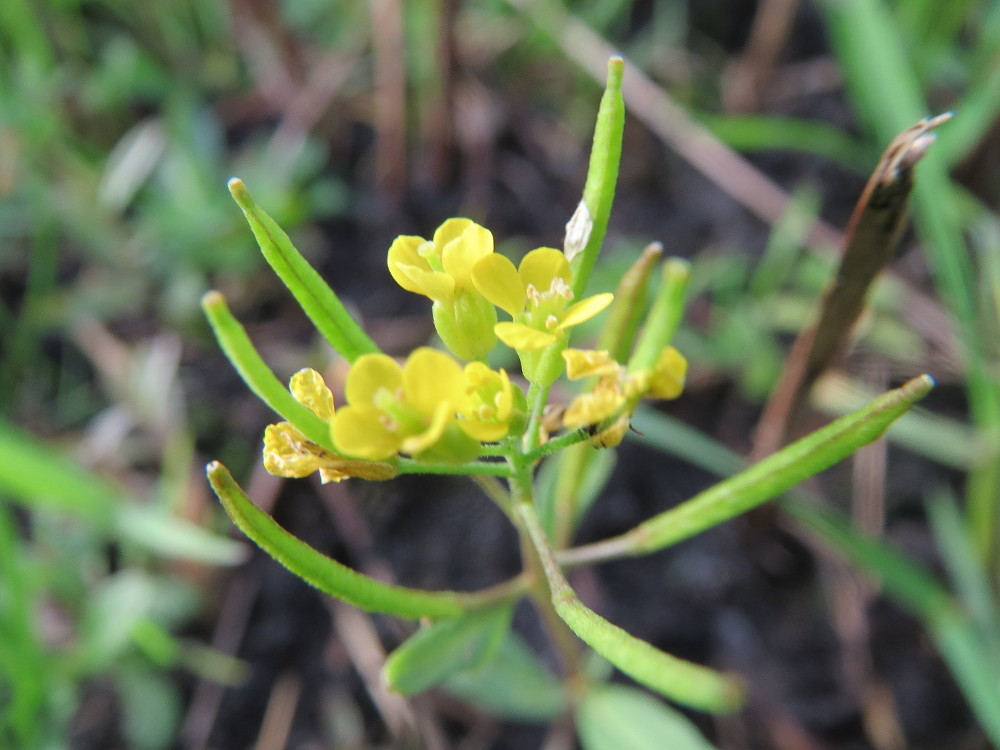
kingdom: Plantae
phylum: Tracheophyta
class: Magnoliopsida
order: Brassicales
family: Brassicaceae
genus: Erysimum
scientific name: Erysimum cheiranthoides
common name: Treacle mustard
